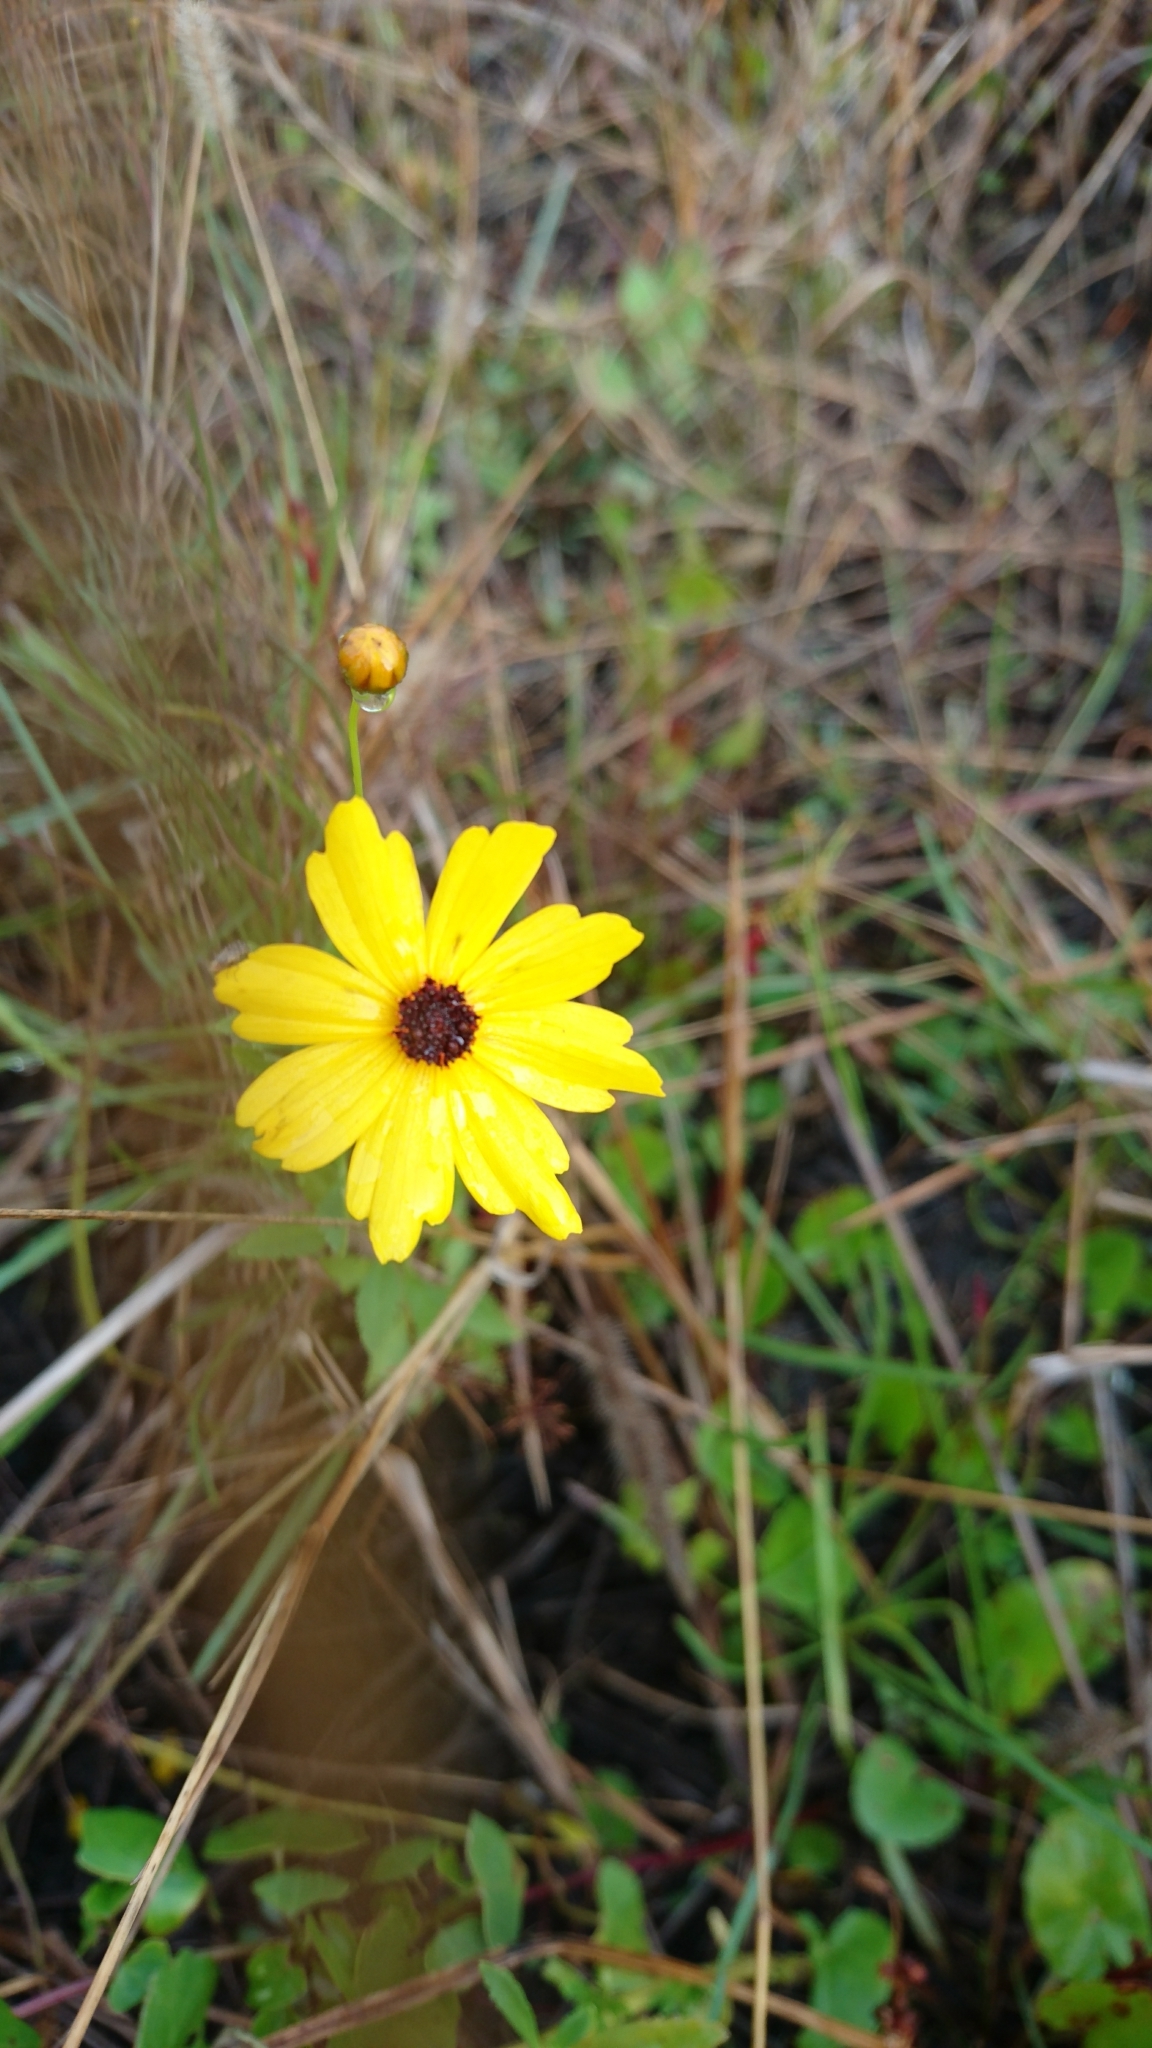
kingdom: Plantae
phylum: Tracheophyta
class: Magnoliopsida
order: Asterales
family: Asteraceae
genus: Coreopsis
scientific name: Coreopsis leavenworthii
